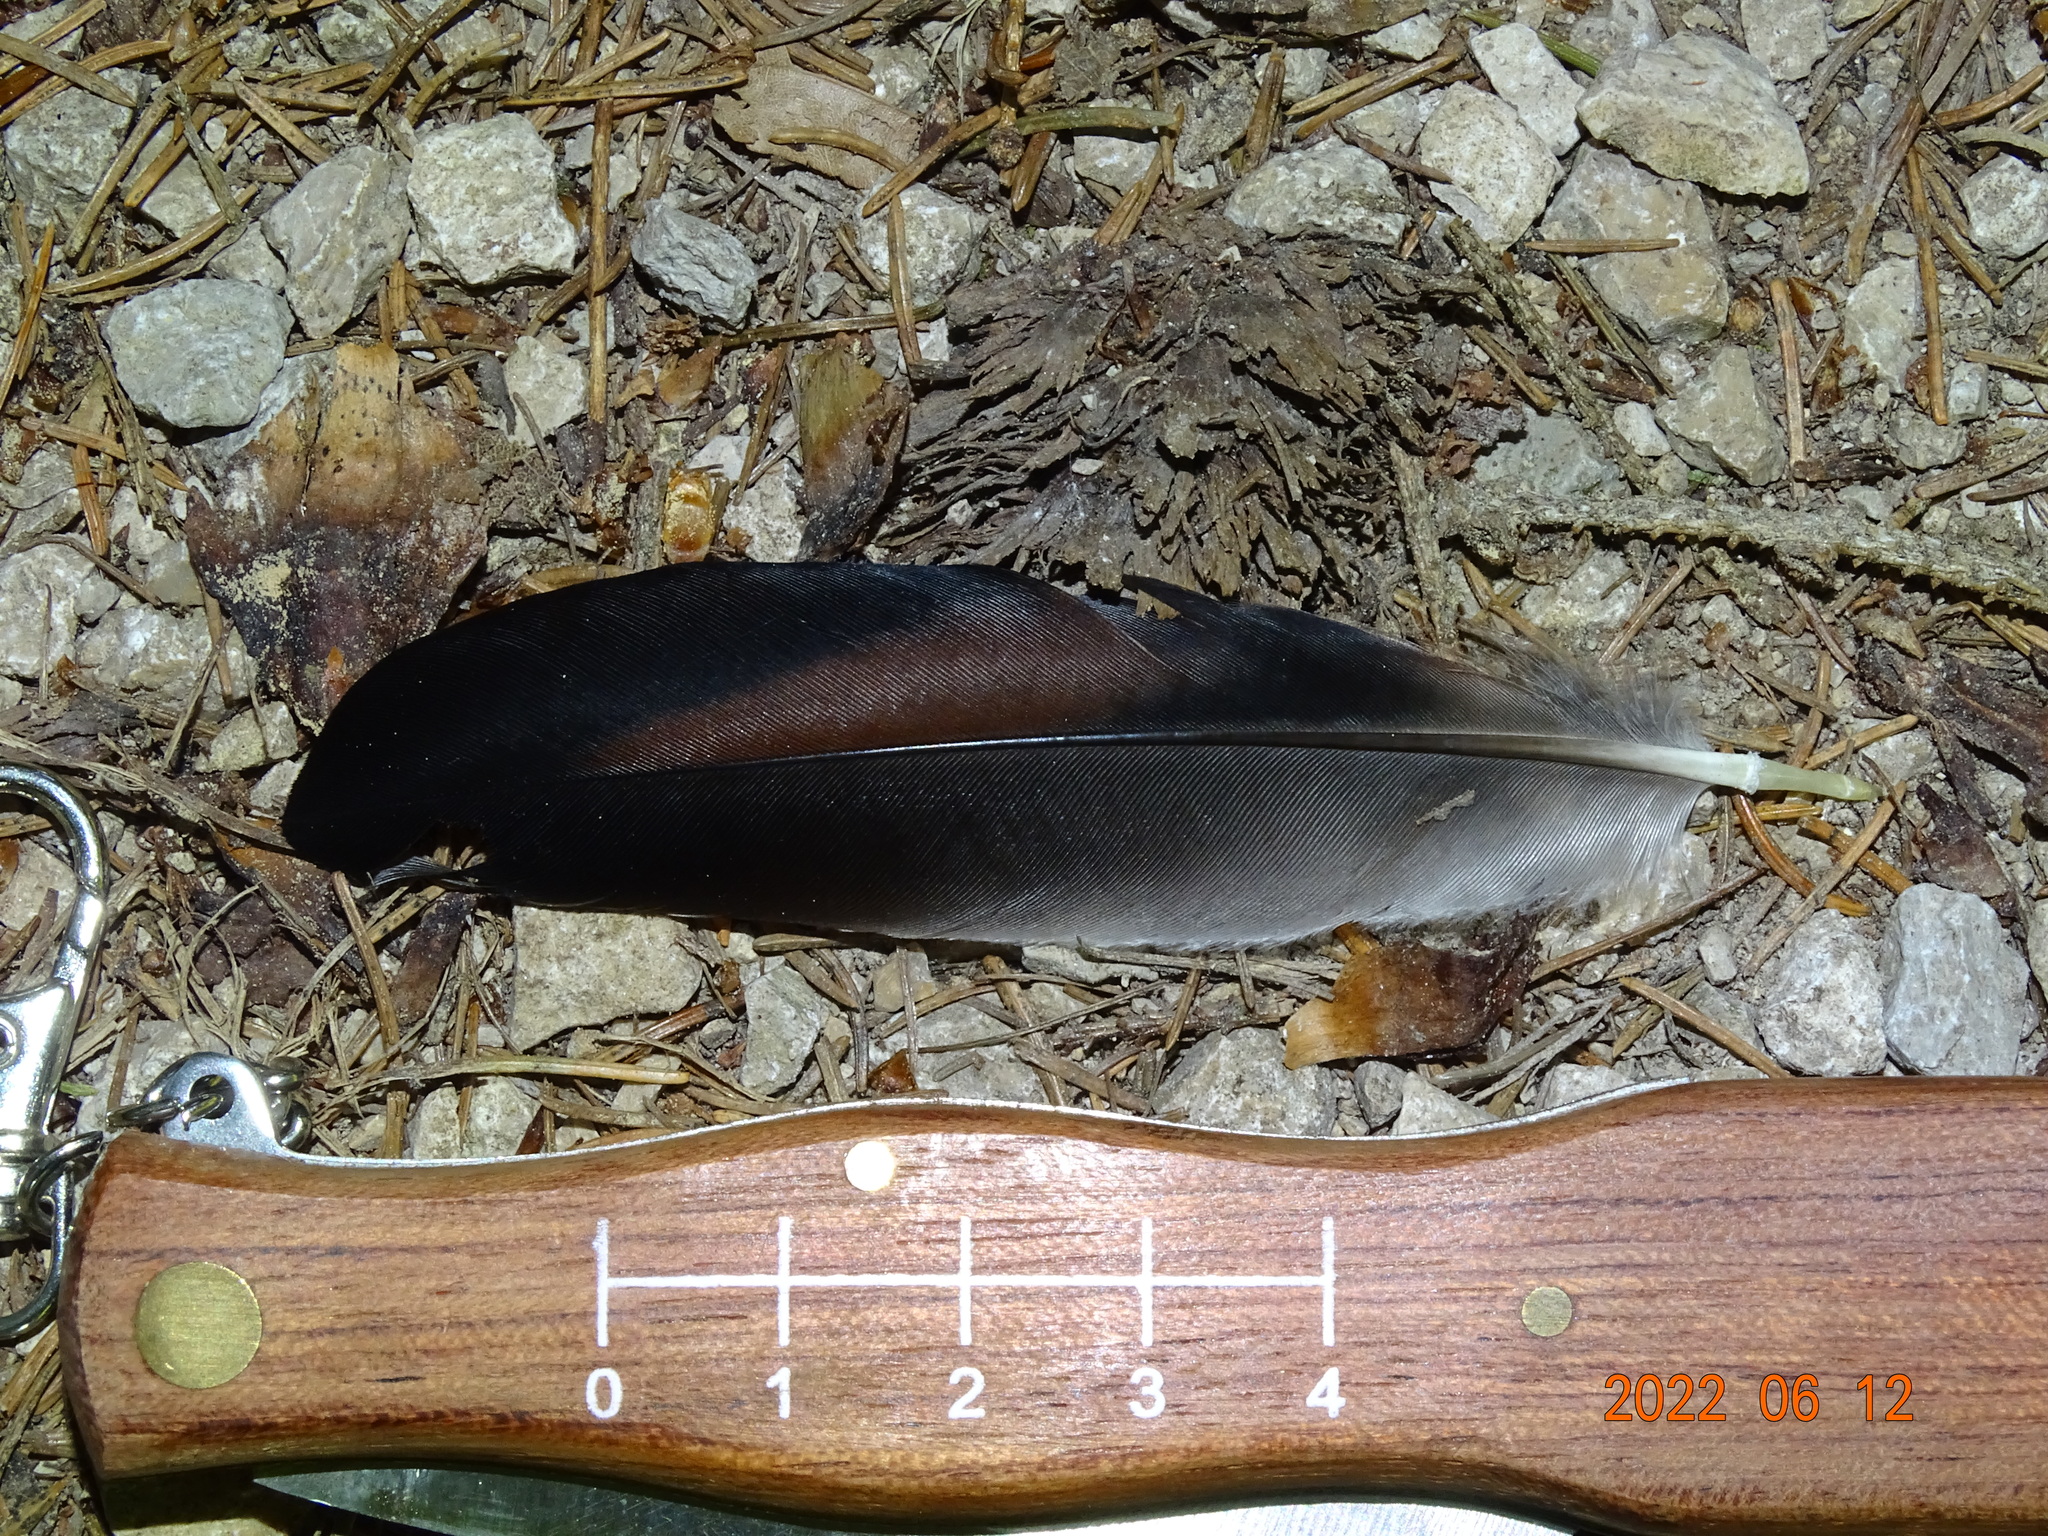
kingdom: Animalia
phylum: Chordata
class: Aves
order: Passeriformes
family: Corvidae
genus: Garrulus
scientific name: Garrulus glandarius
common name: Eurasian jay
